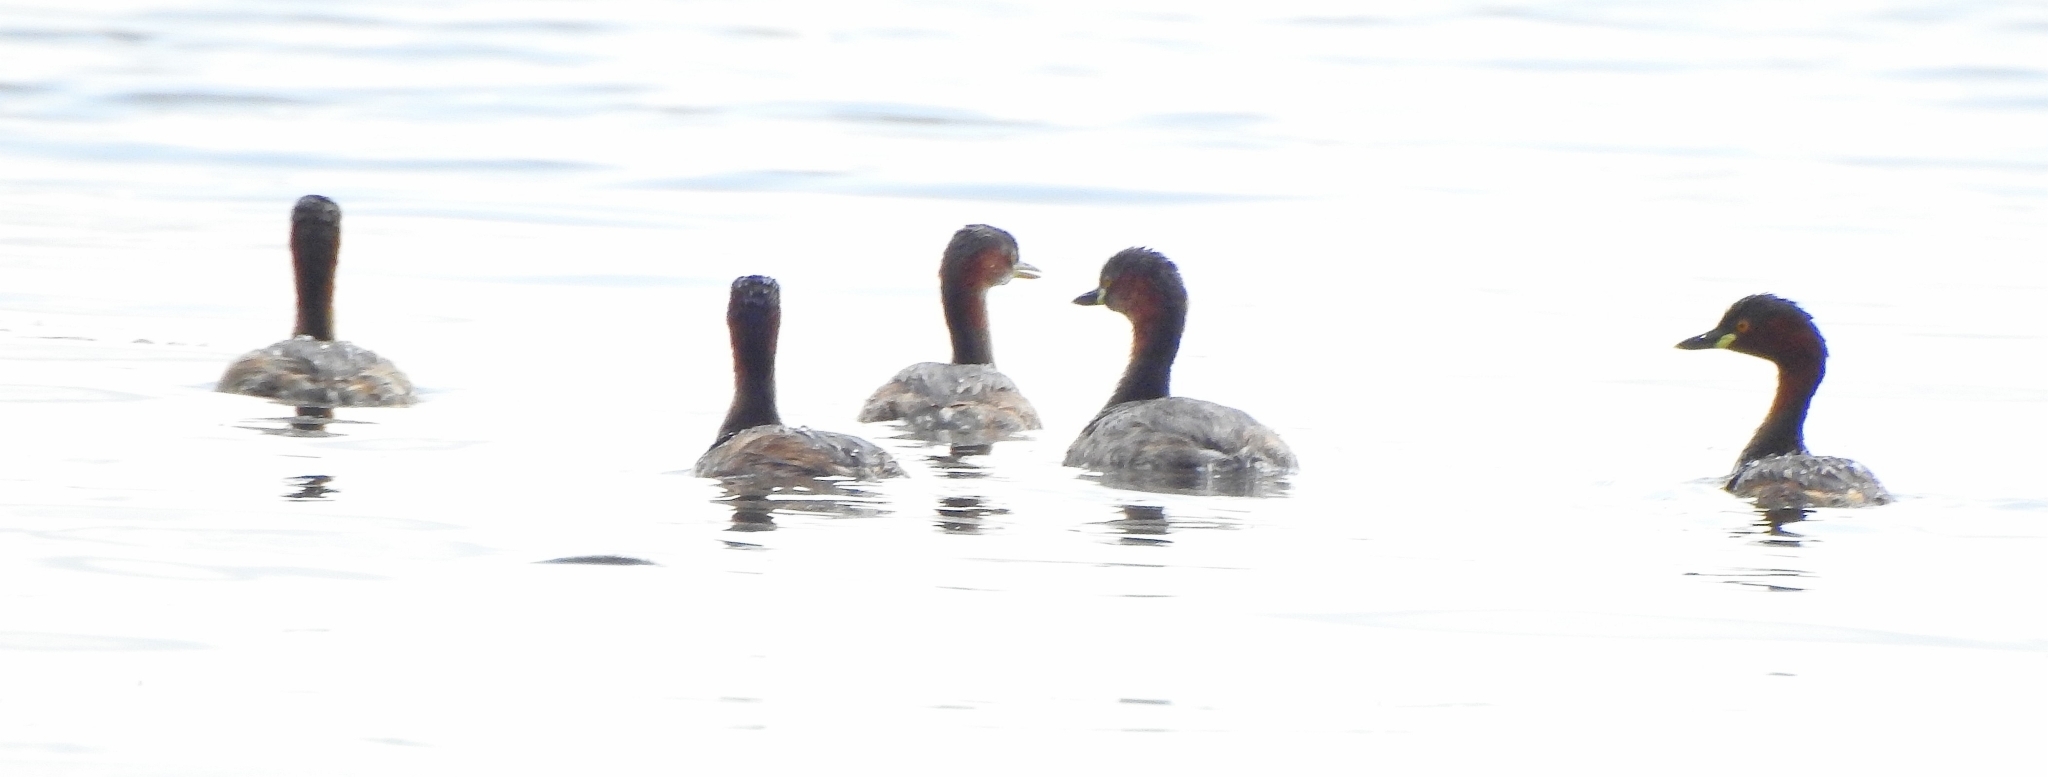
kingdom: Animalia
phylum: Chordata
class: Aves
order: Podicipediformes
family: Podicipedidae
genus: Tachybaptus
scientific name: Tachybaptus ruficollis
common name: Little grebe
